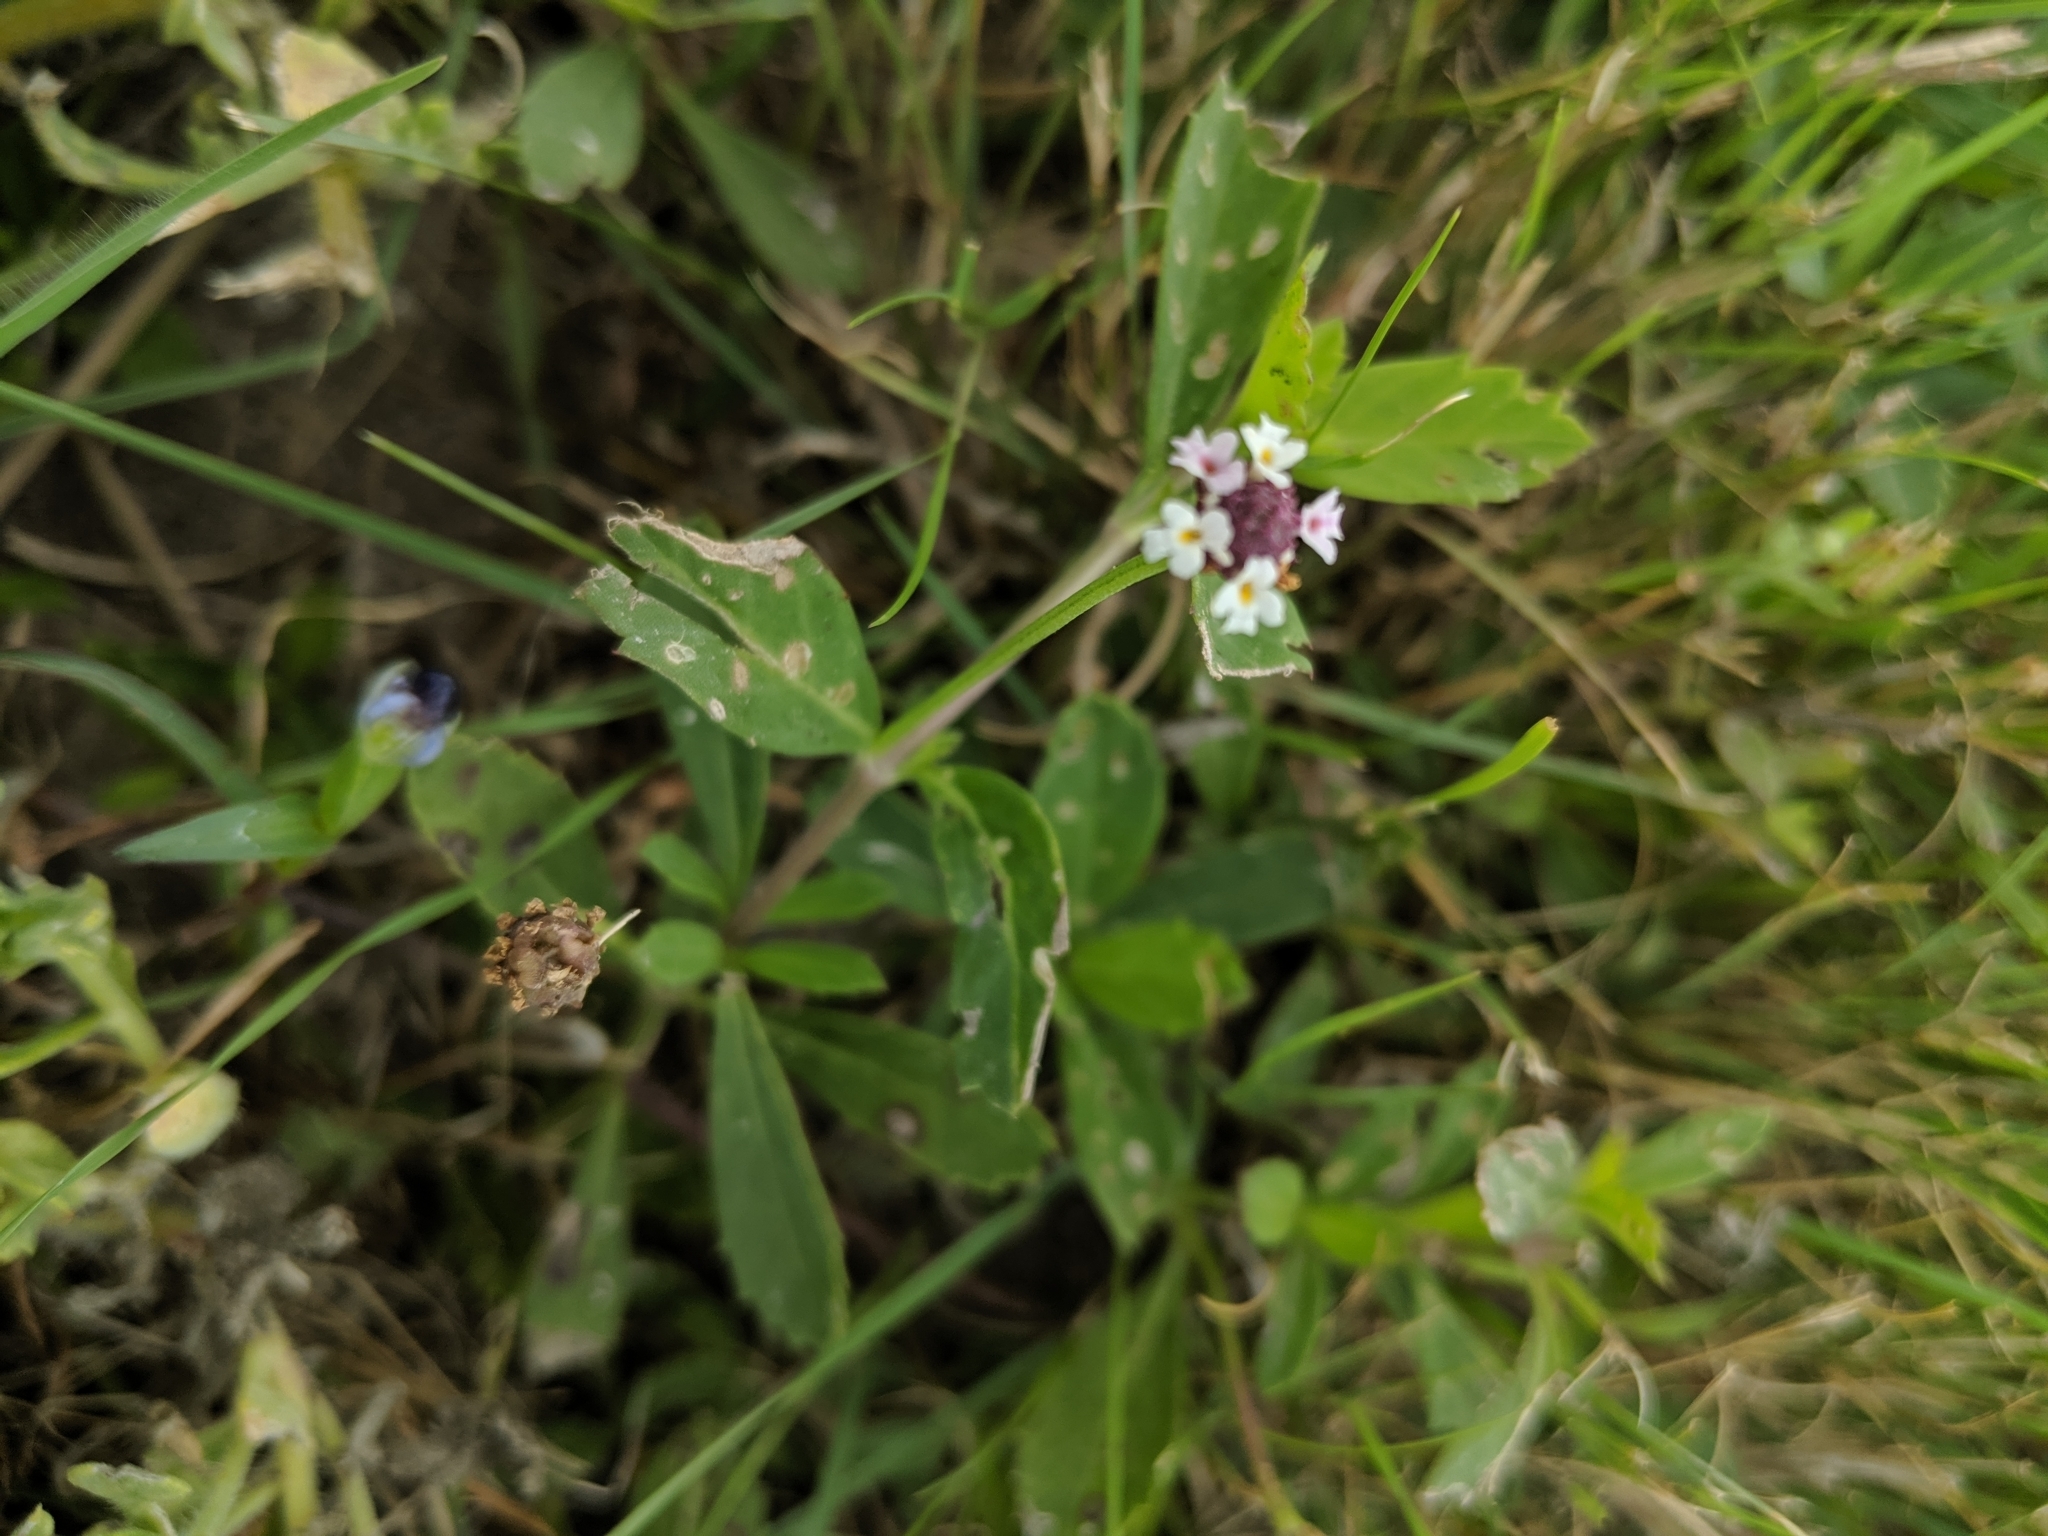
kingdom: Plantae
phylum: Tracheophyta
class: Magnoliopsida
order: Lamiales
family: Verbenaceae
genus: Phyla
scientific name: Phyla nodiflora
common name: Frogfruit
